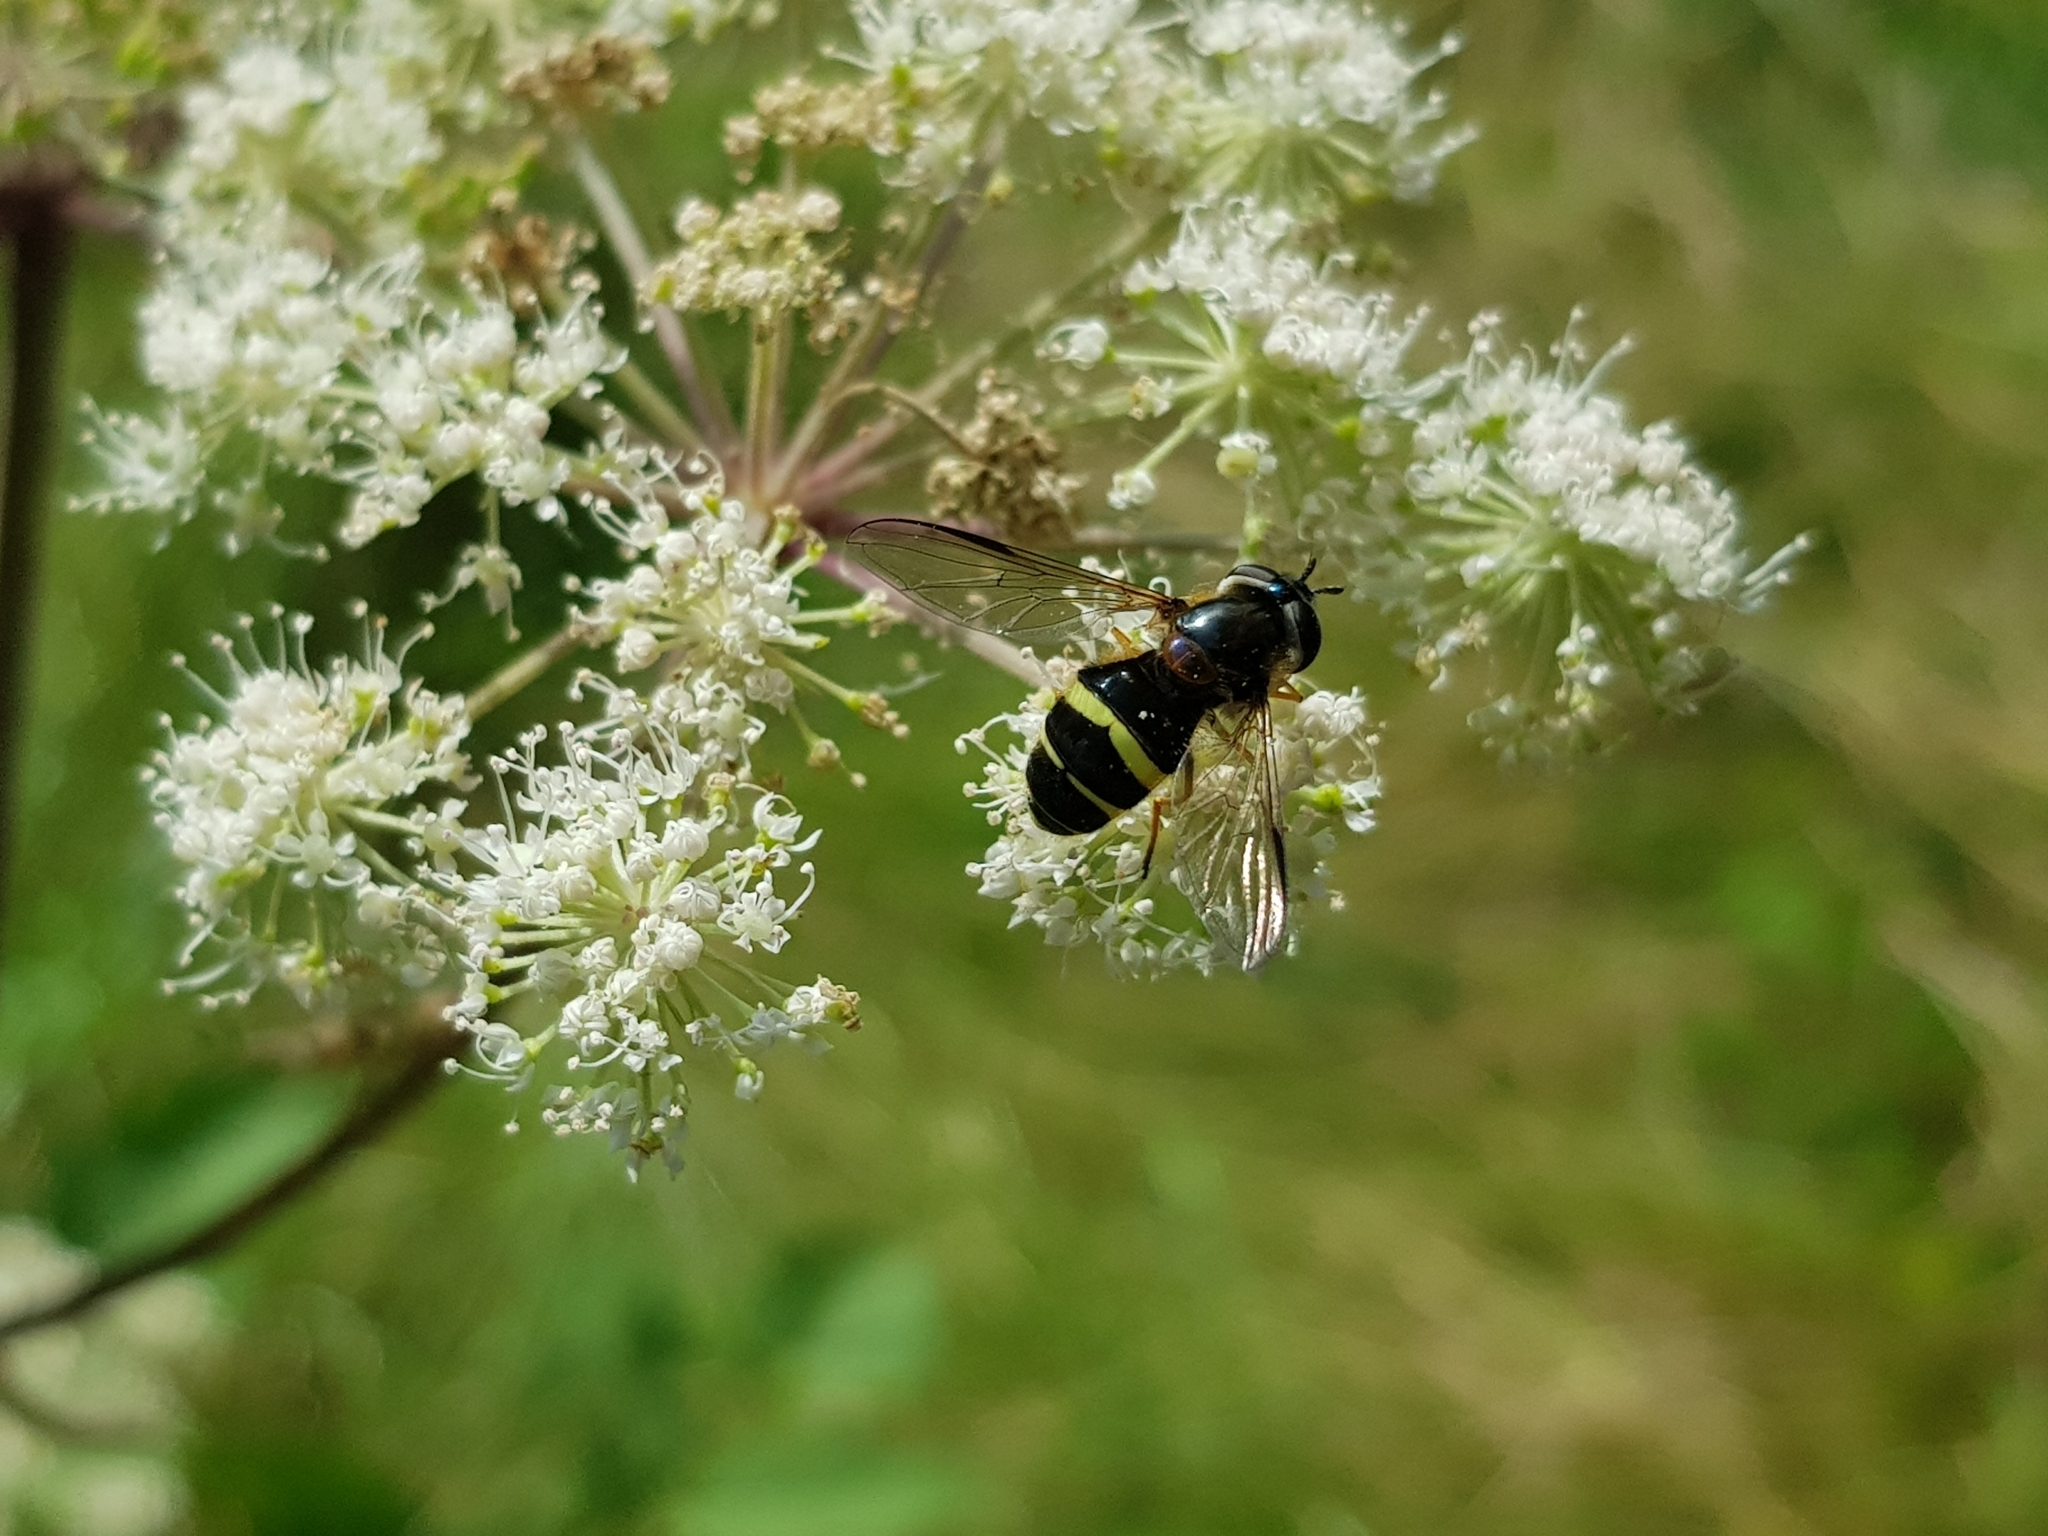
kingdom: Animalia
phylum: Arthropoda
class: Insecta
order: Diptera
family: Syrphidae
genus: Dasysyrphus
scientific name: Dasysyrphus tricinctus
